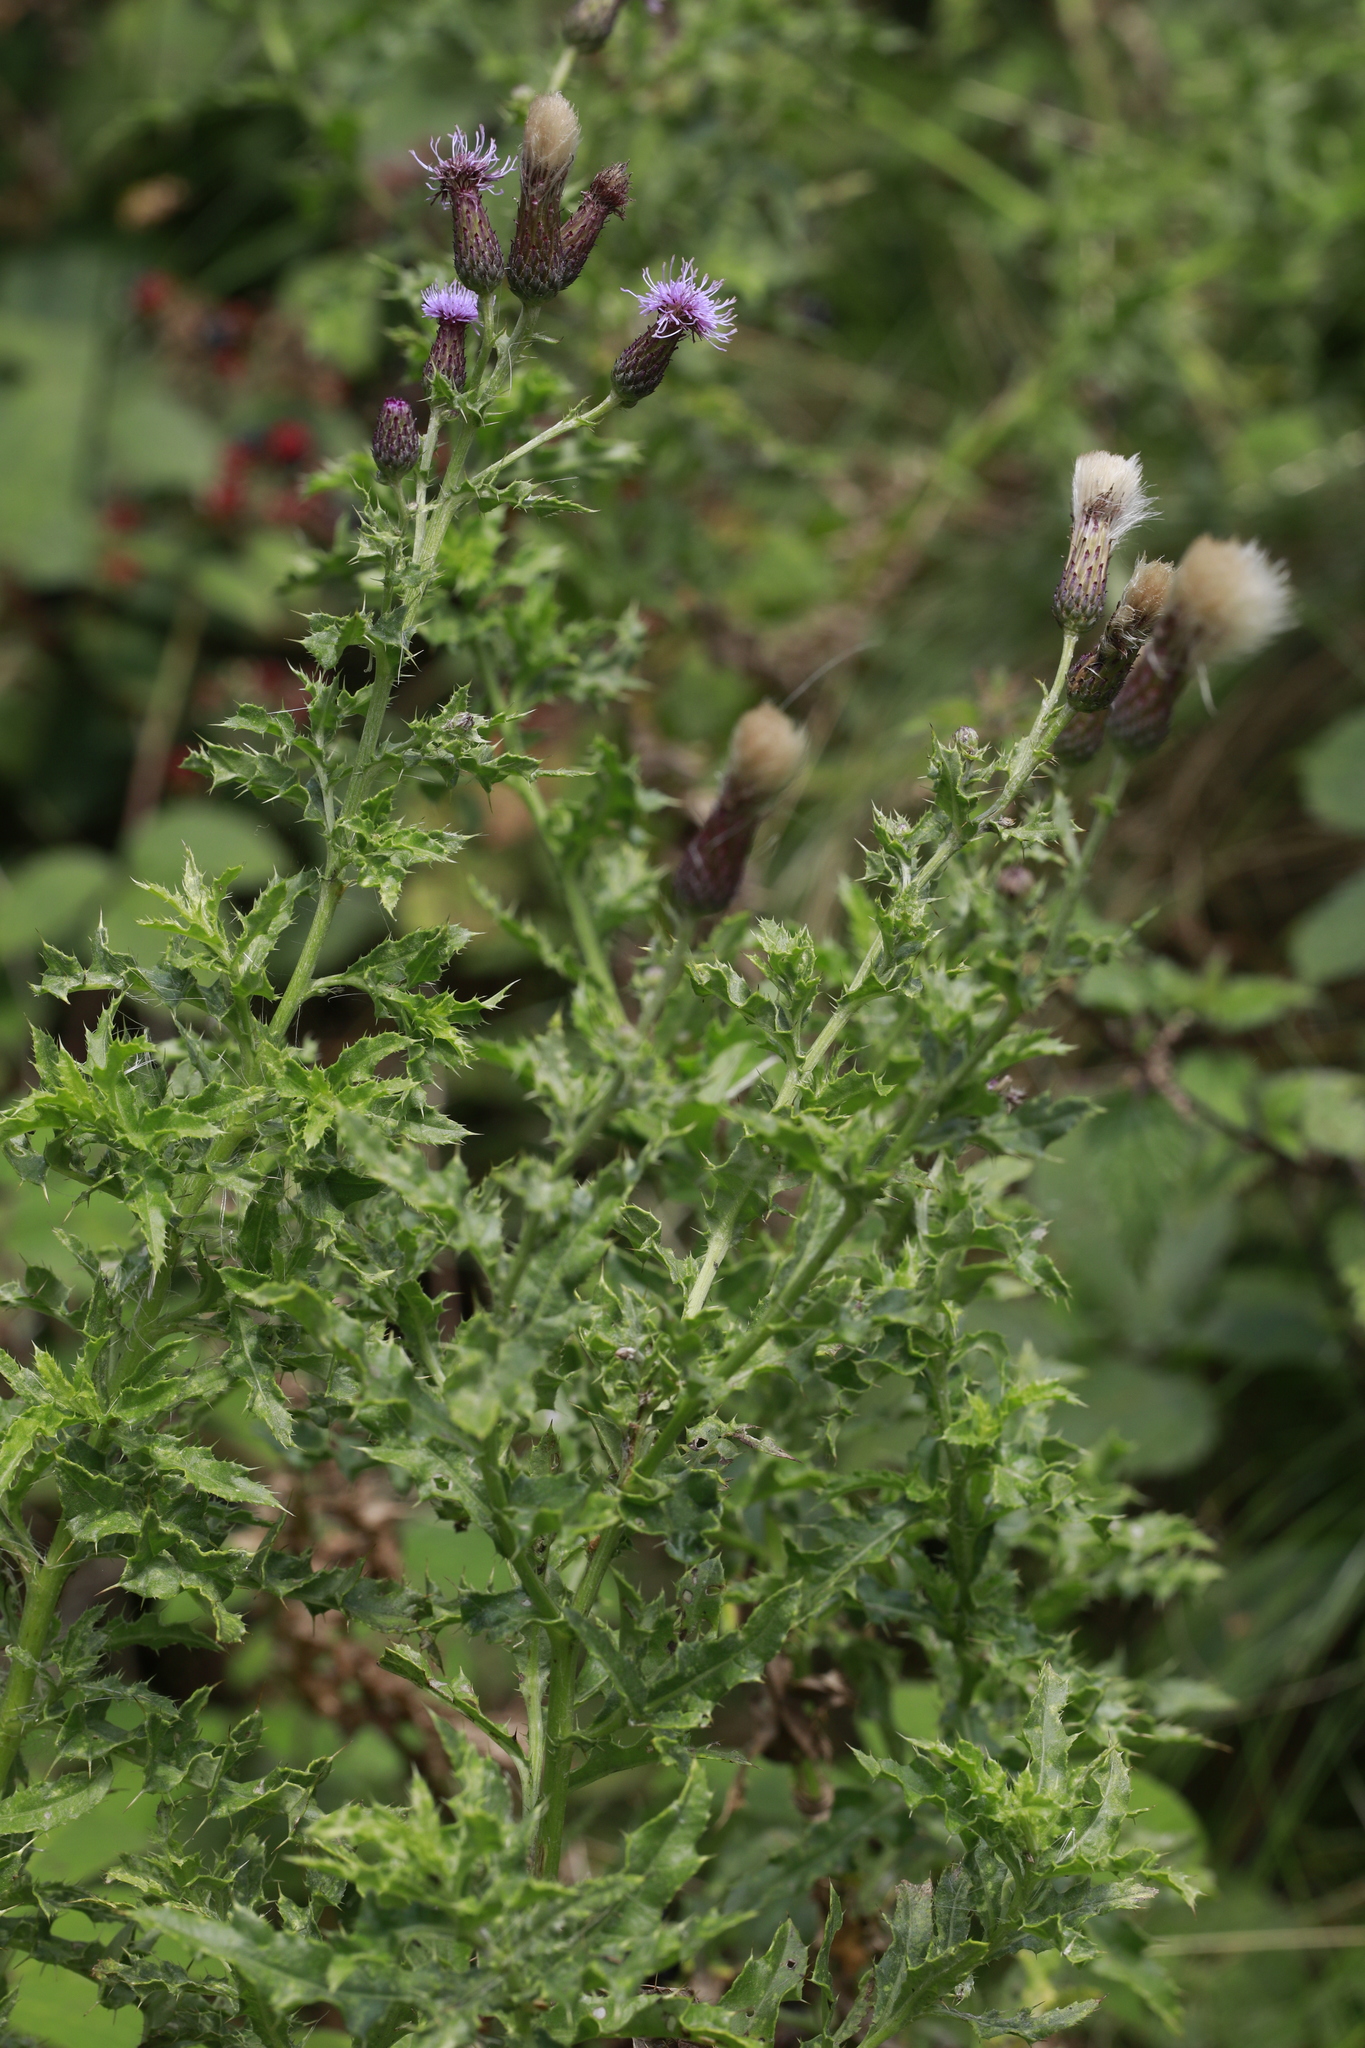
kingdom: Plantae
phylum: Tracheophyta
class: Magnoliopsida
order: Asterales
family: Asteraceae
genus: Cirsium
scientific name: Cirsium arvense
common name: Creeping thistle
